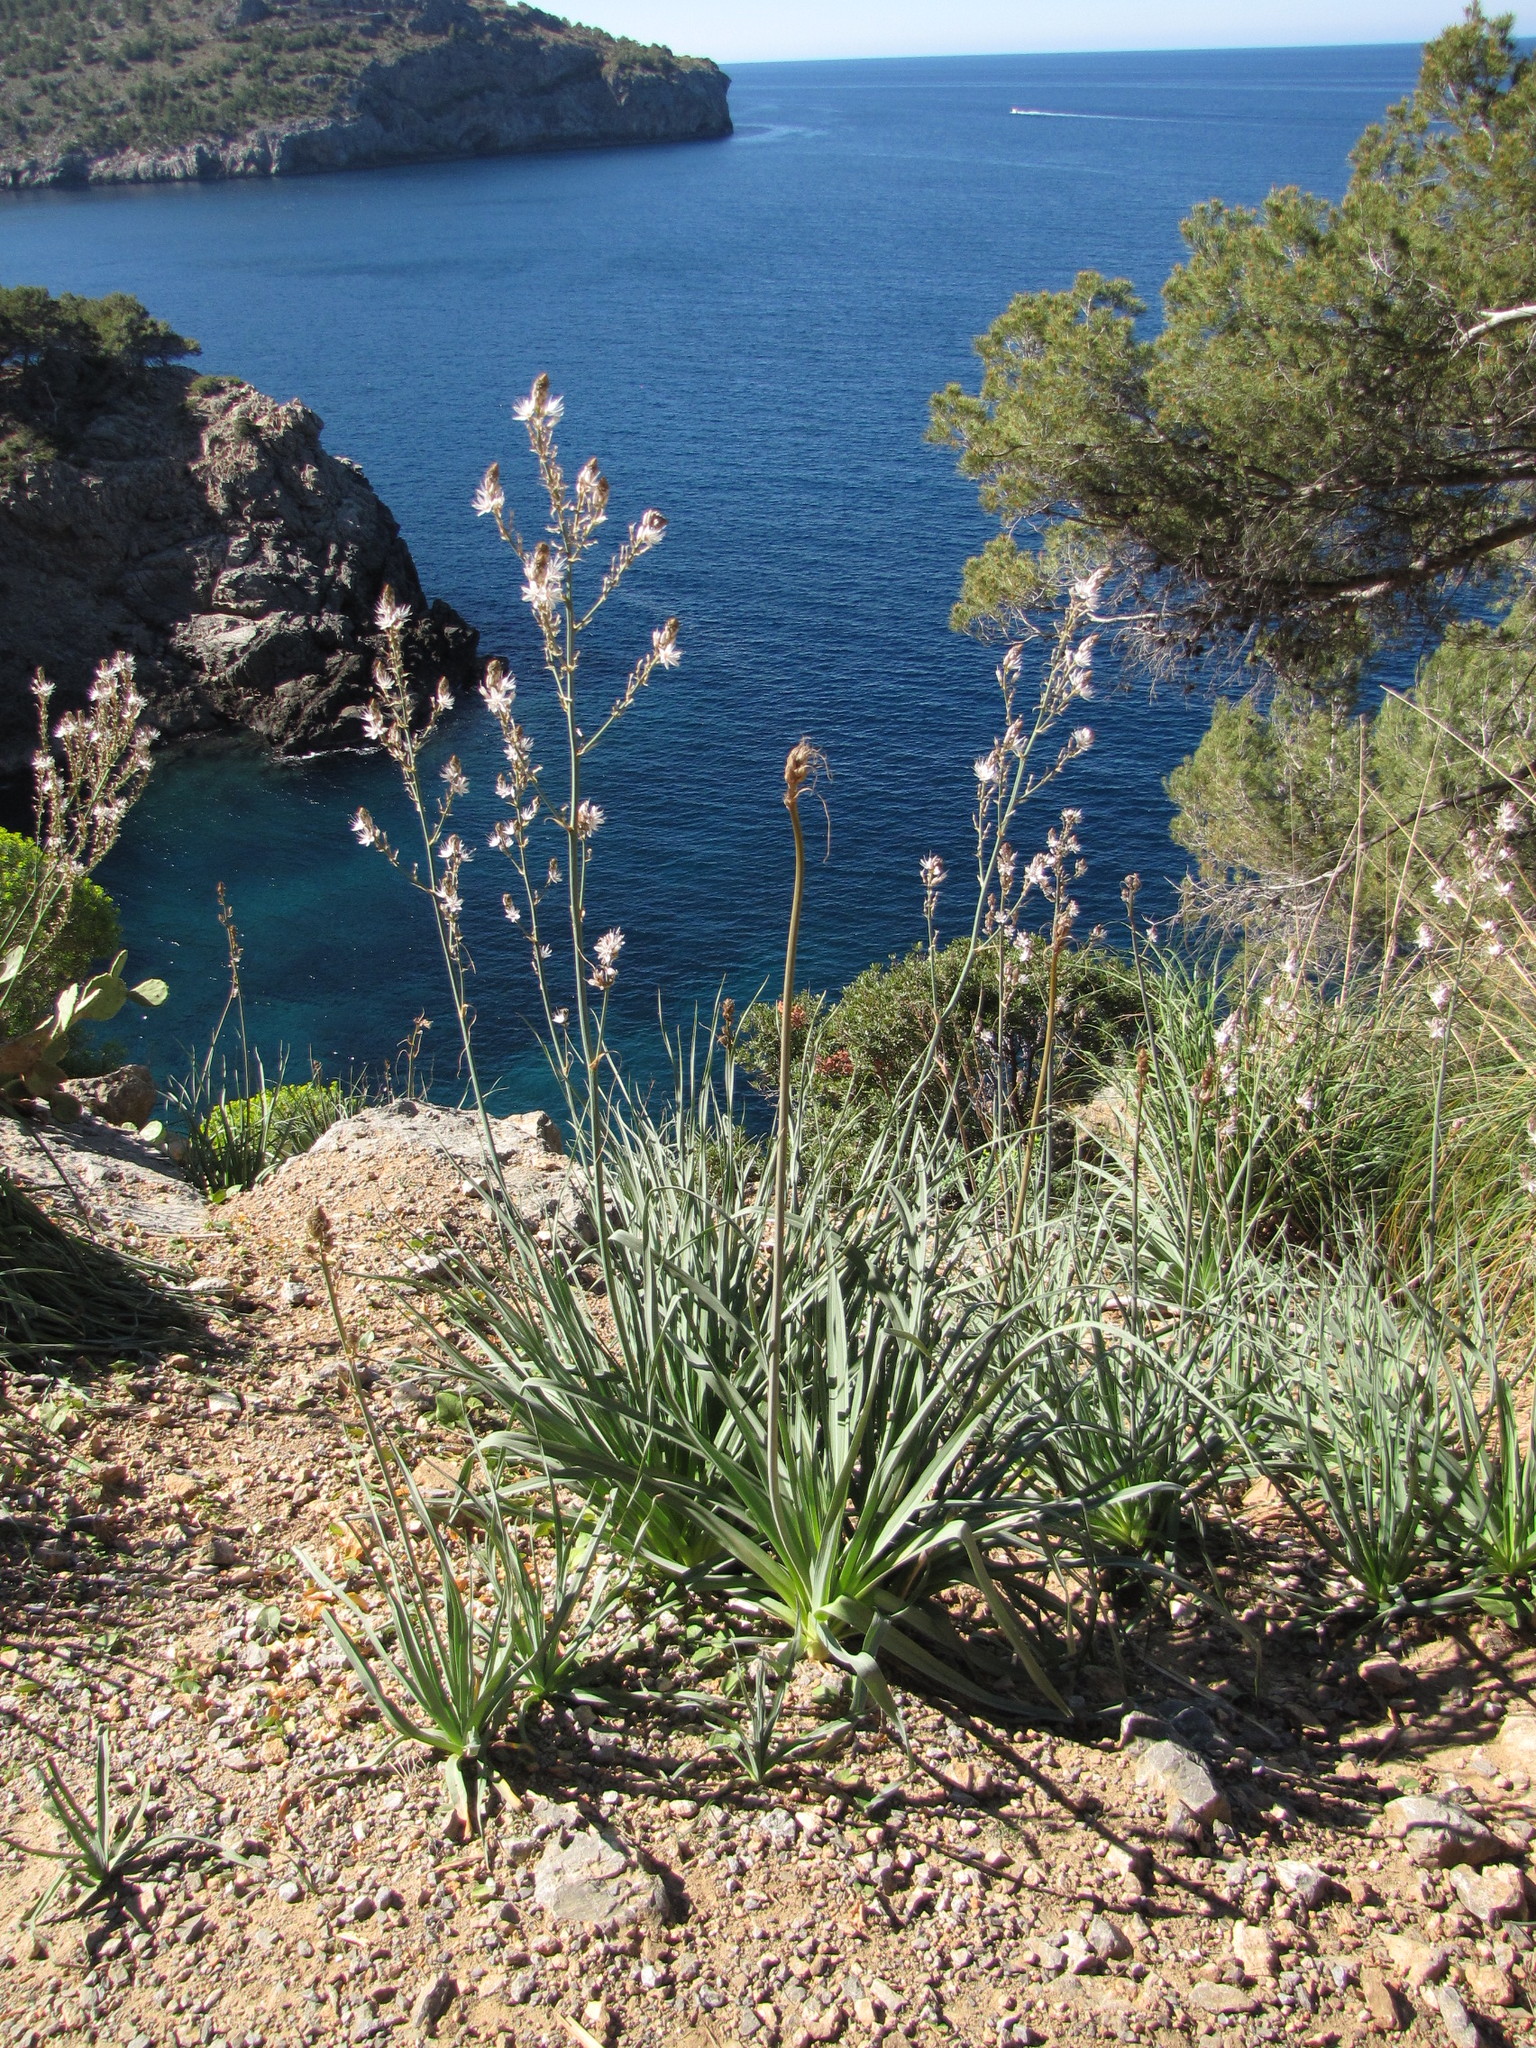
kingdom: Plantae
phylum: Tracheophyta
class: Liliopsida
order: Asparagales
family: Asphodelaceae
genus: Asphodelus
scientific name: Asphodelus ramosus
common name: Silverrod
